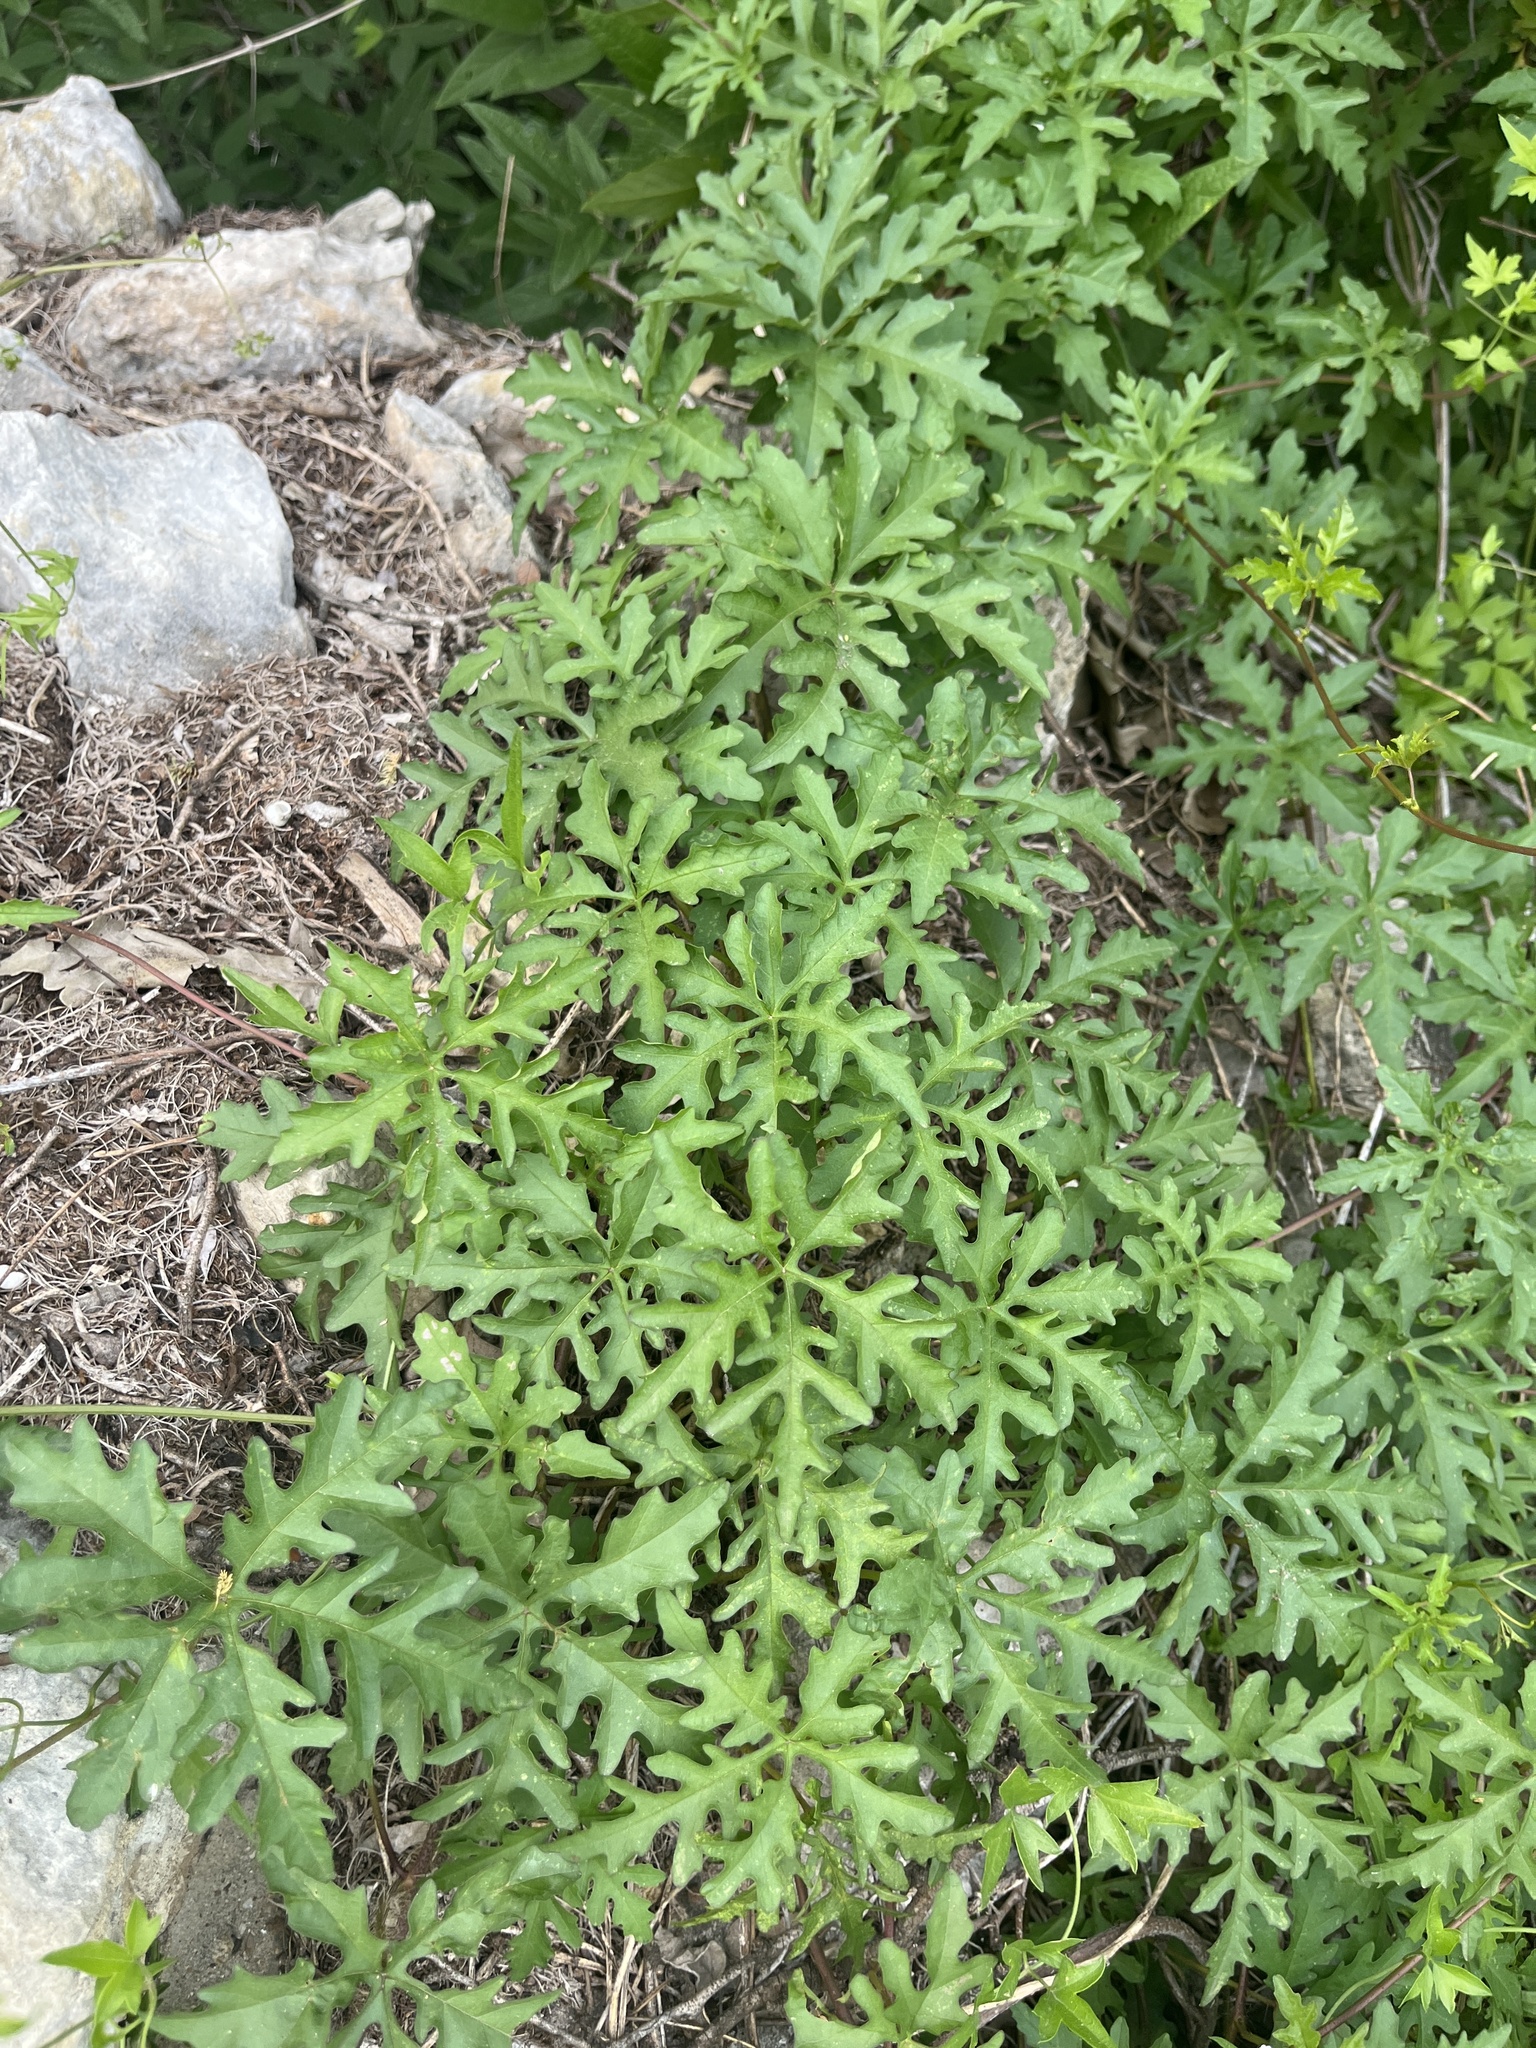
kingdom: Plantae
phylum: Tracheophyta
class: Magnoliopsida
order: Solanales
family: Convolvulaceae
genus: Distimake
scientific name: Distimake dissectus
